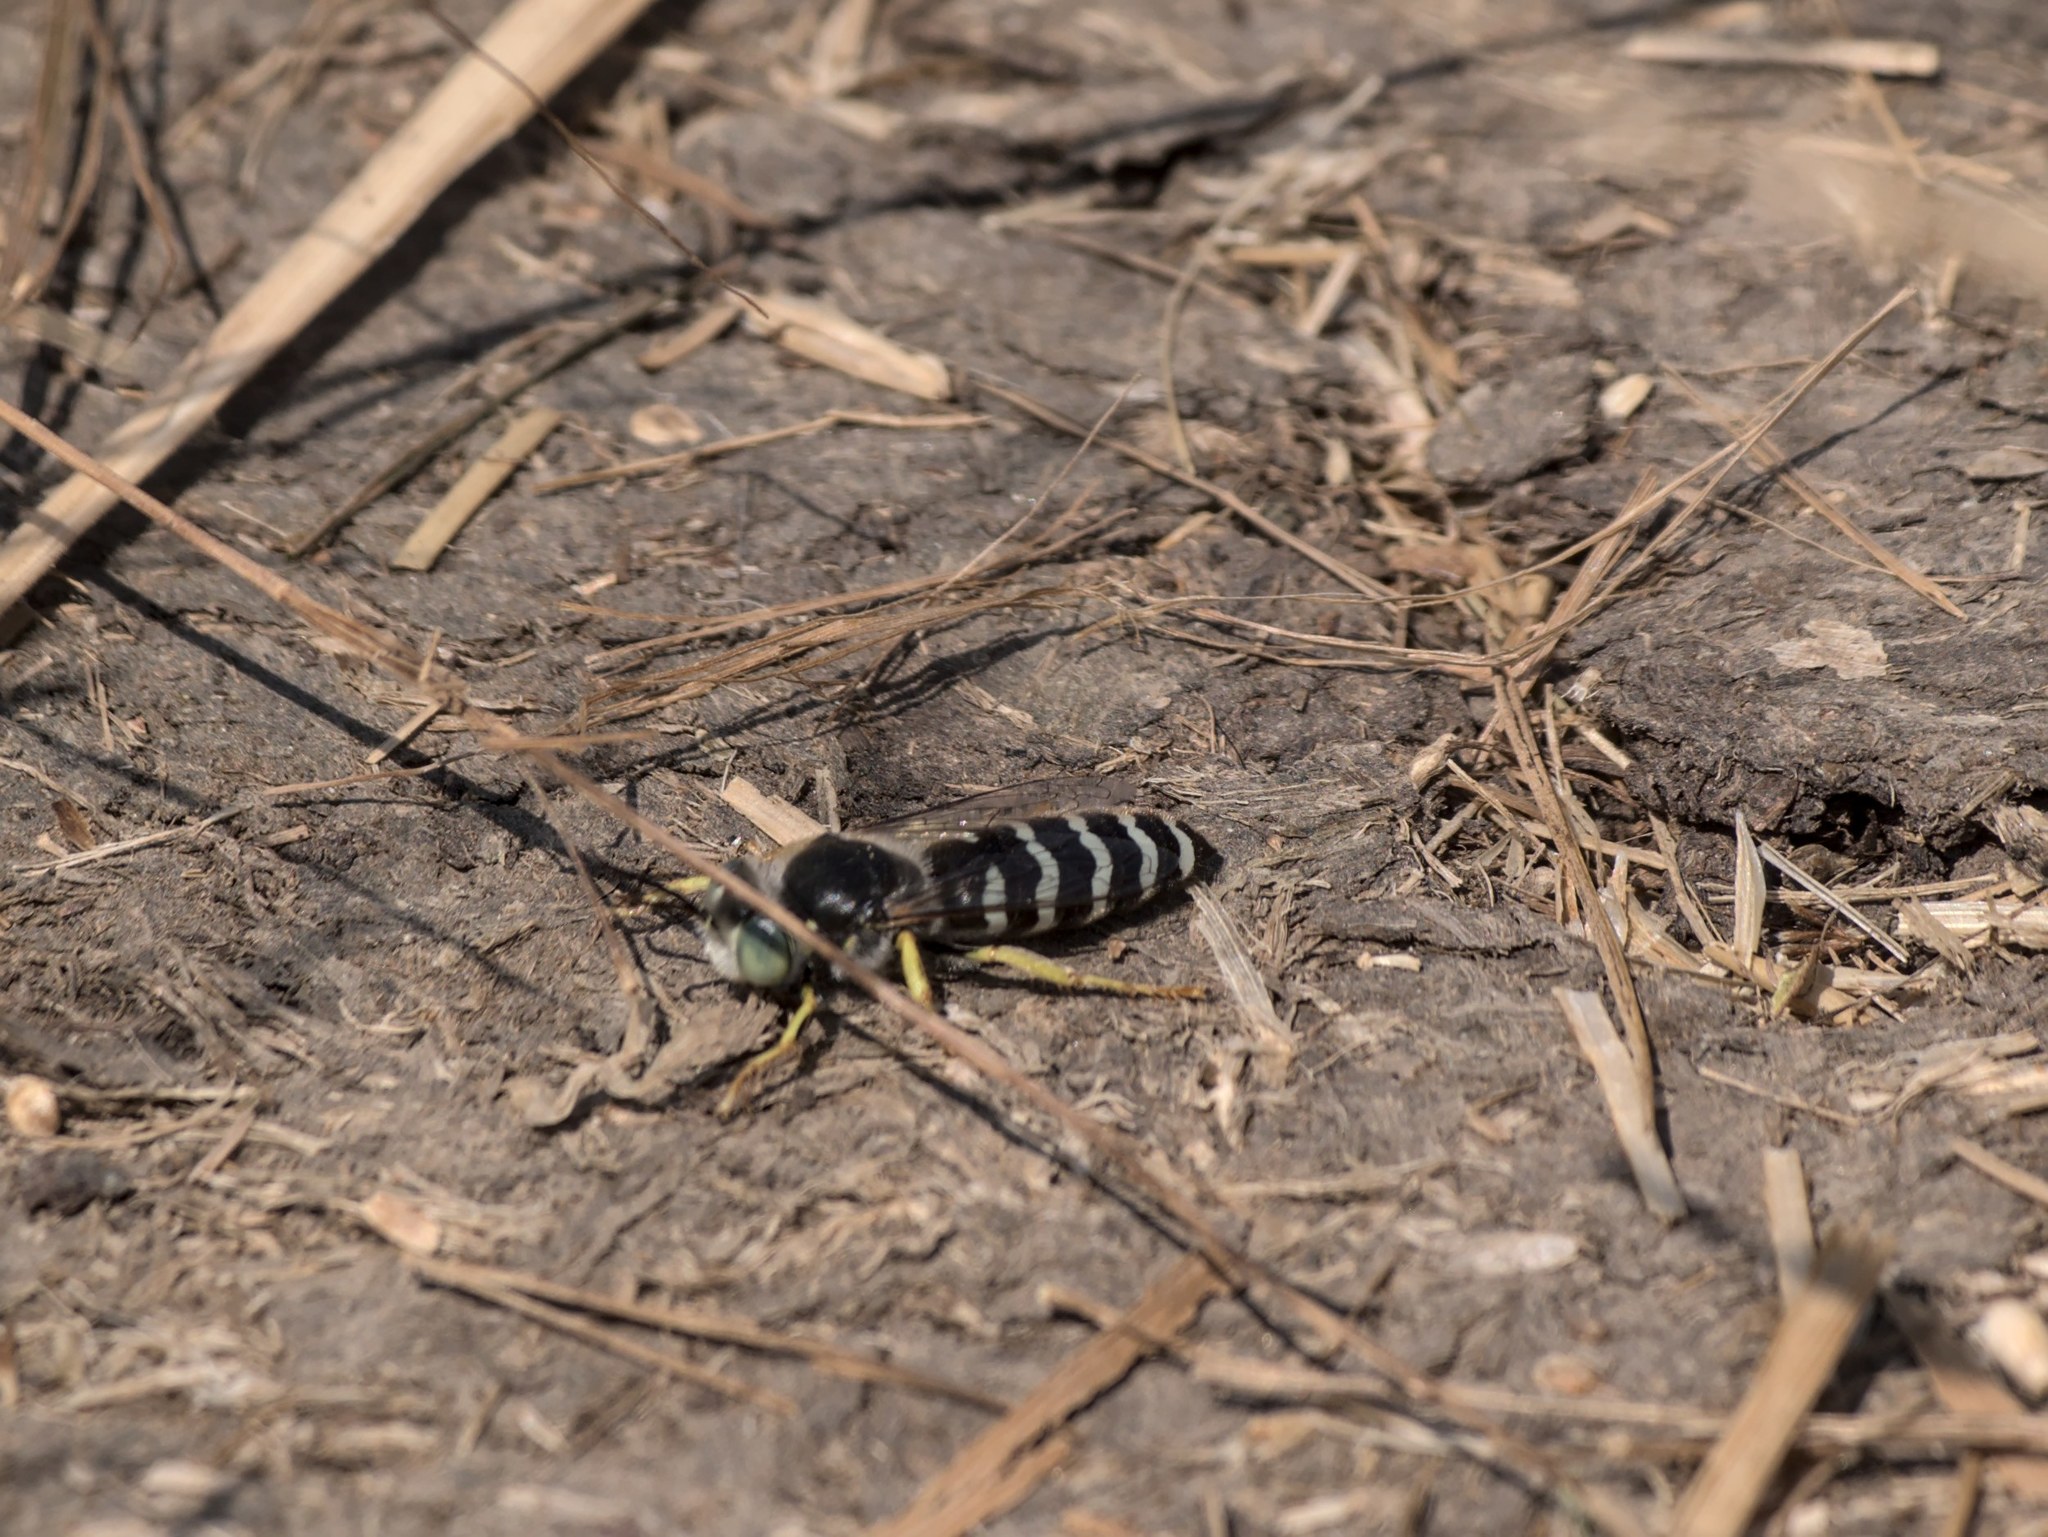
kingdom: Animalia
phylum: Arthropoda
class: Insecta
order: Hymenoptera
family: Crabronidae
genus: Bembix
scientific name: Bembix americana
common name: American sand wasp
